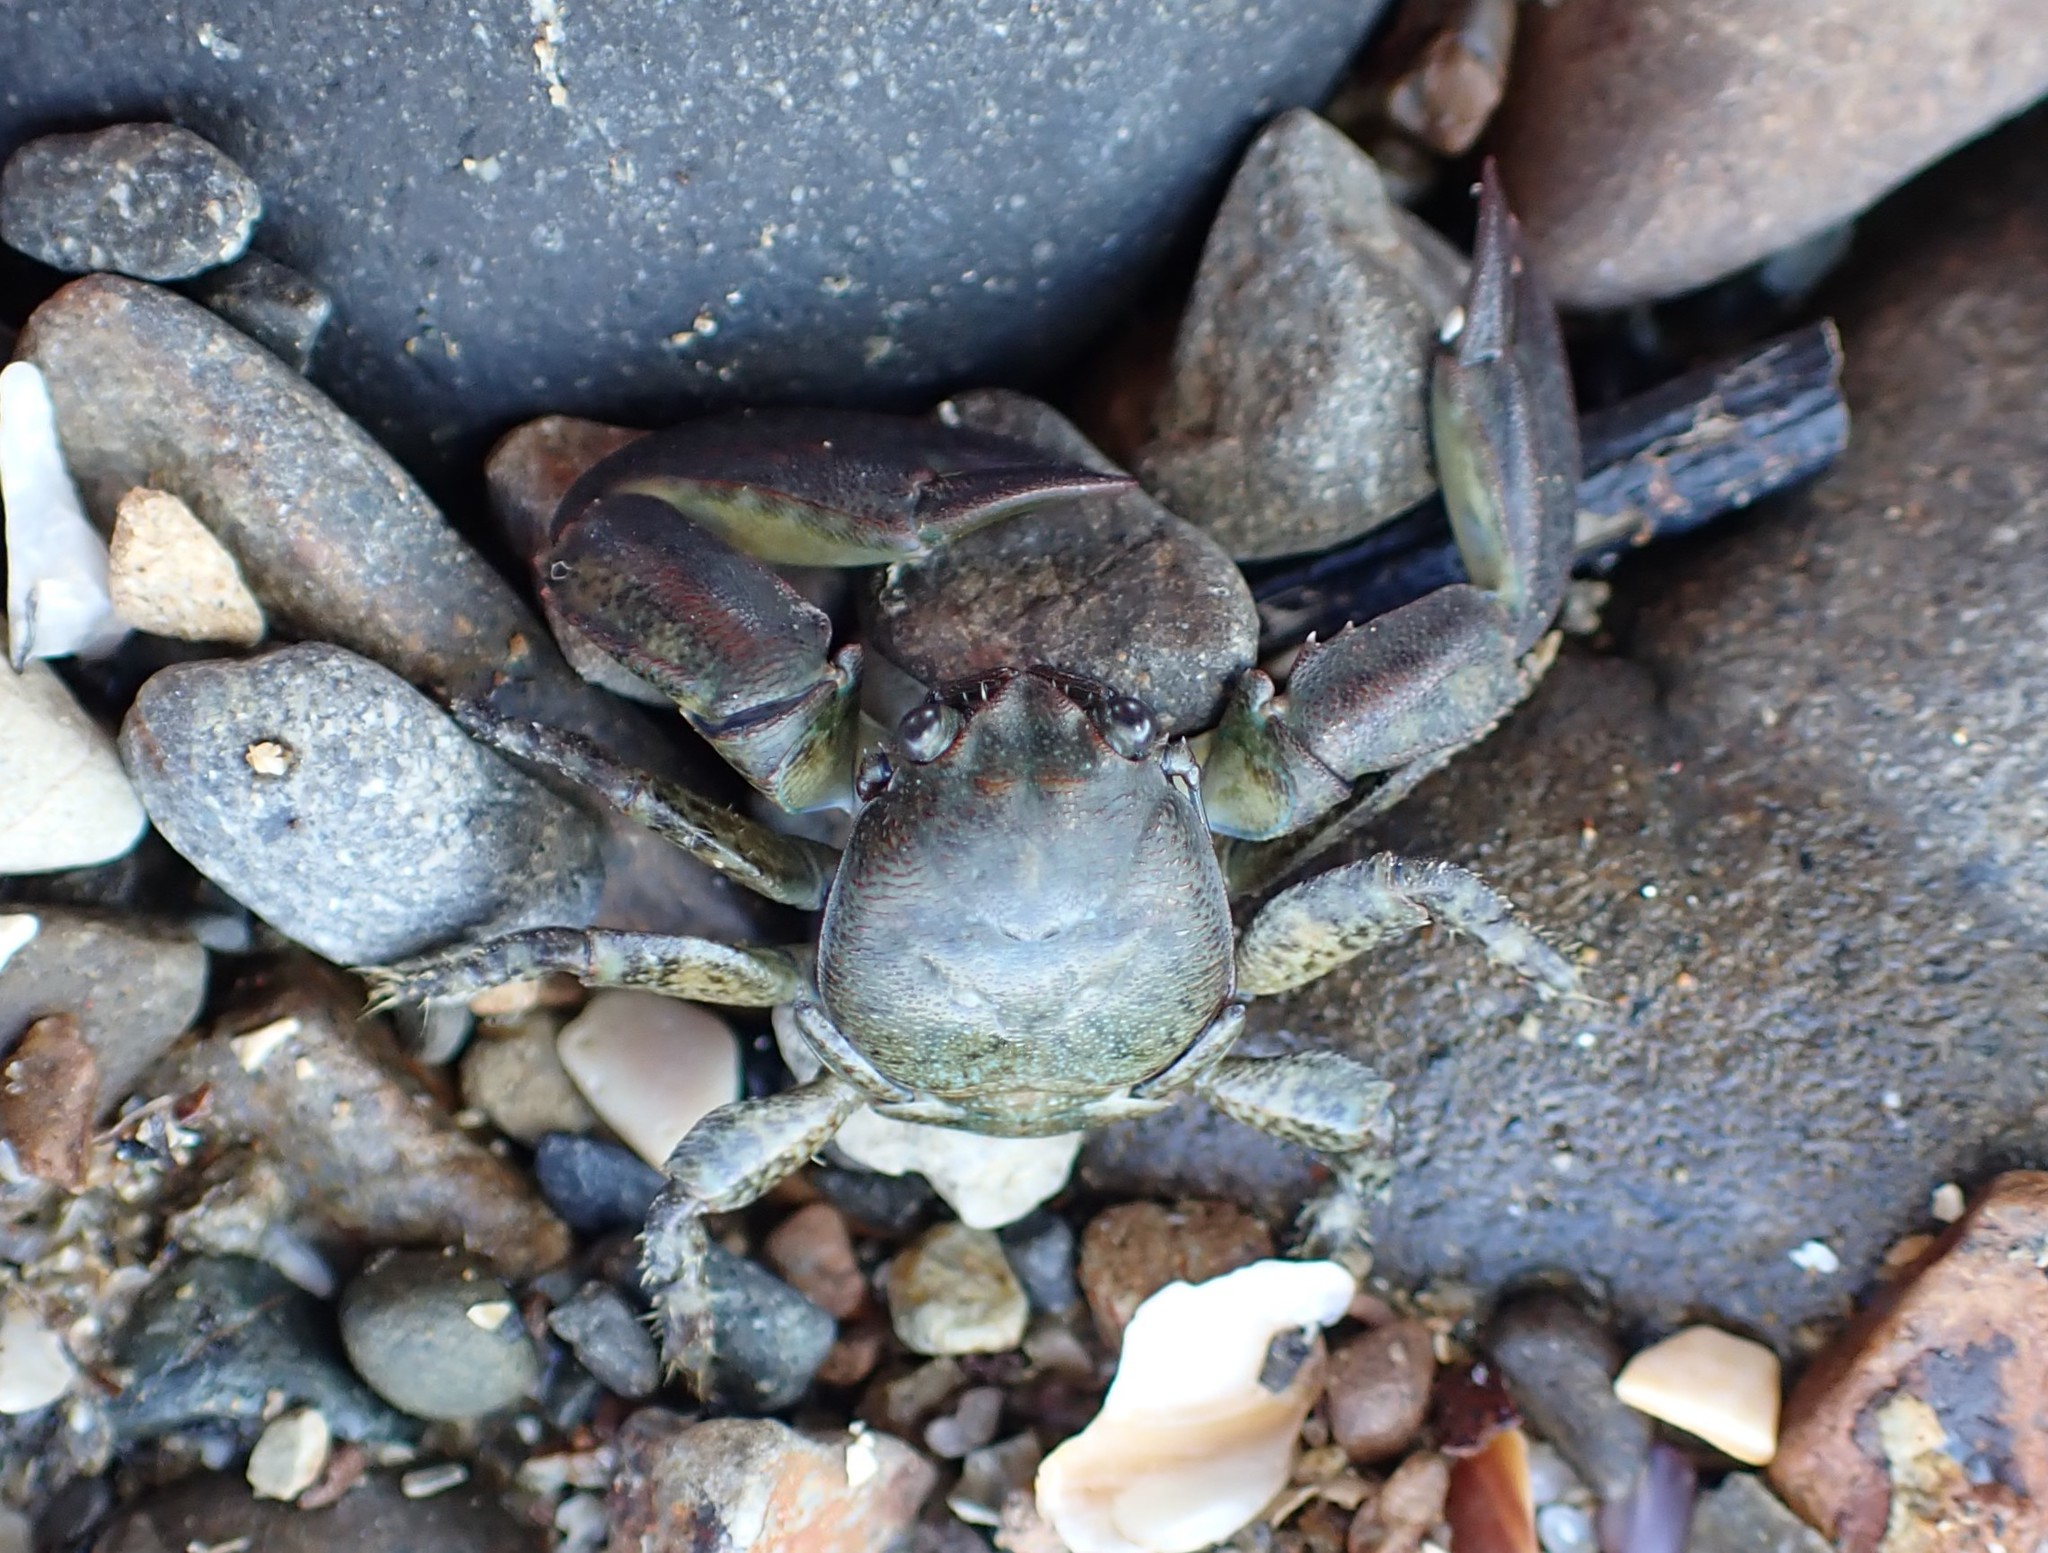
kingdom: Animalia
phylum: Arthropoda
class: Malacostraca
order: Decapoda
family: Porcellanidae
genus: Petrolisthes
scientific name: Petrolisthes elongatus
